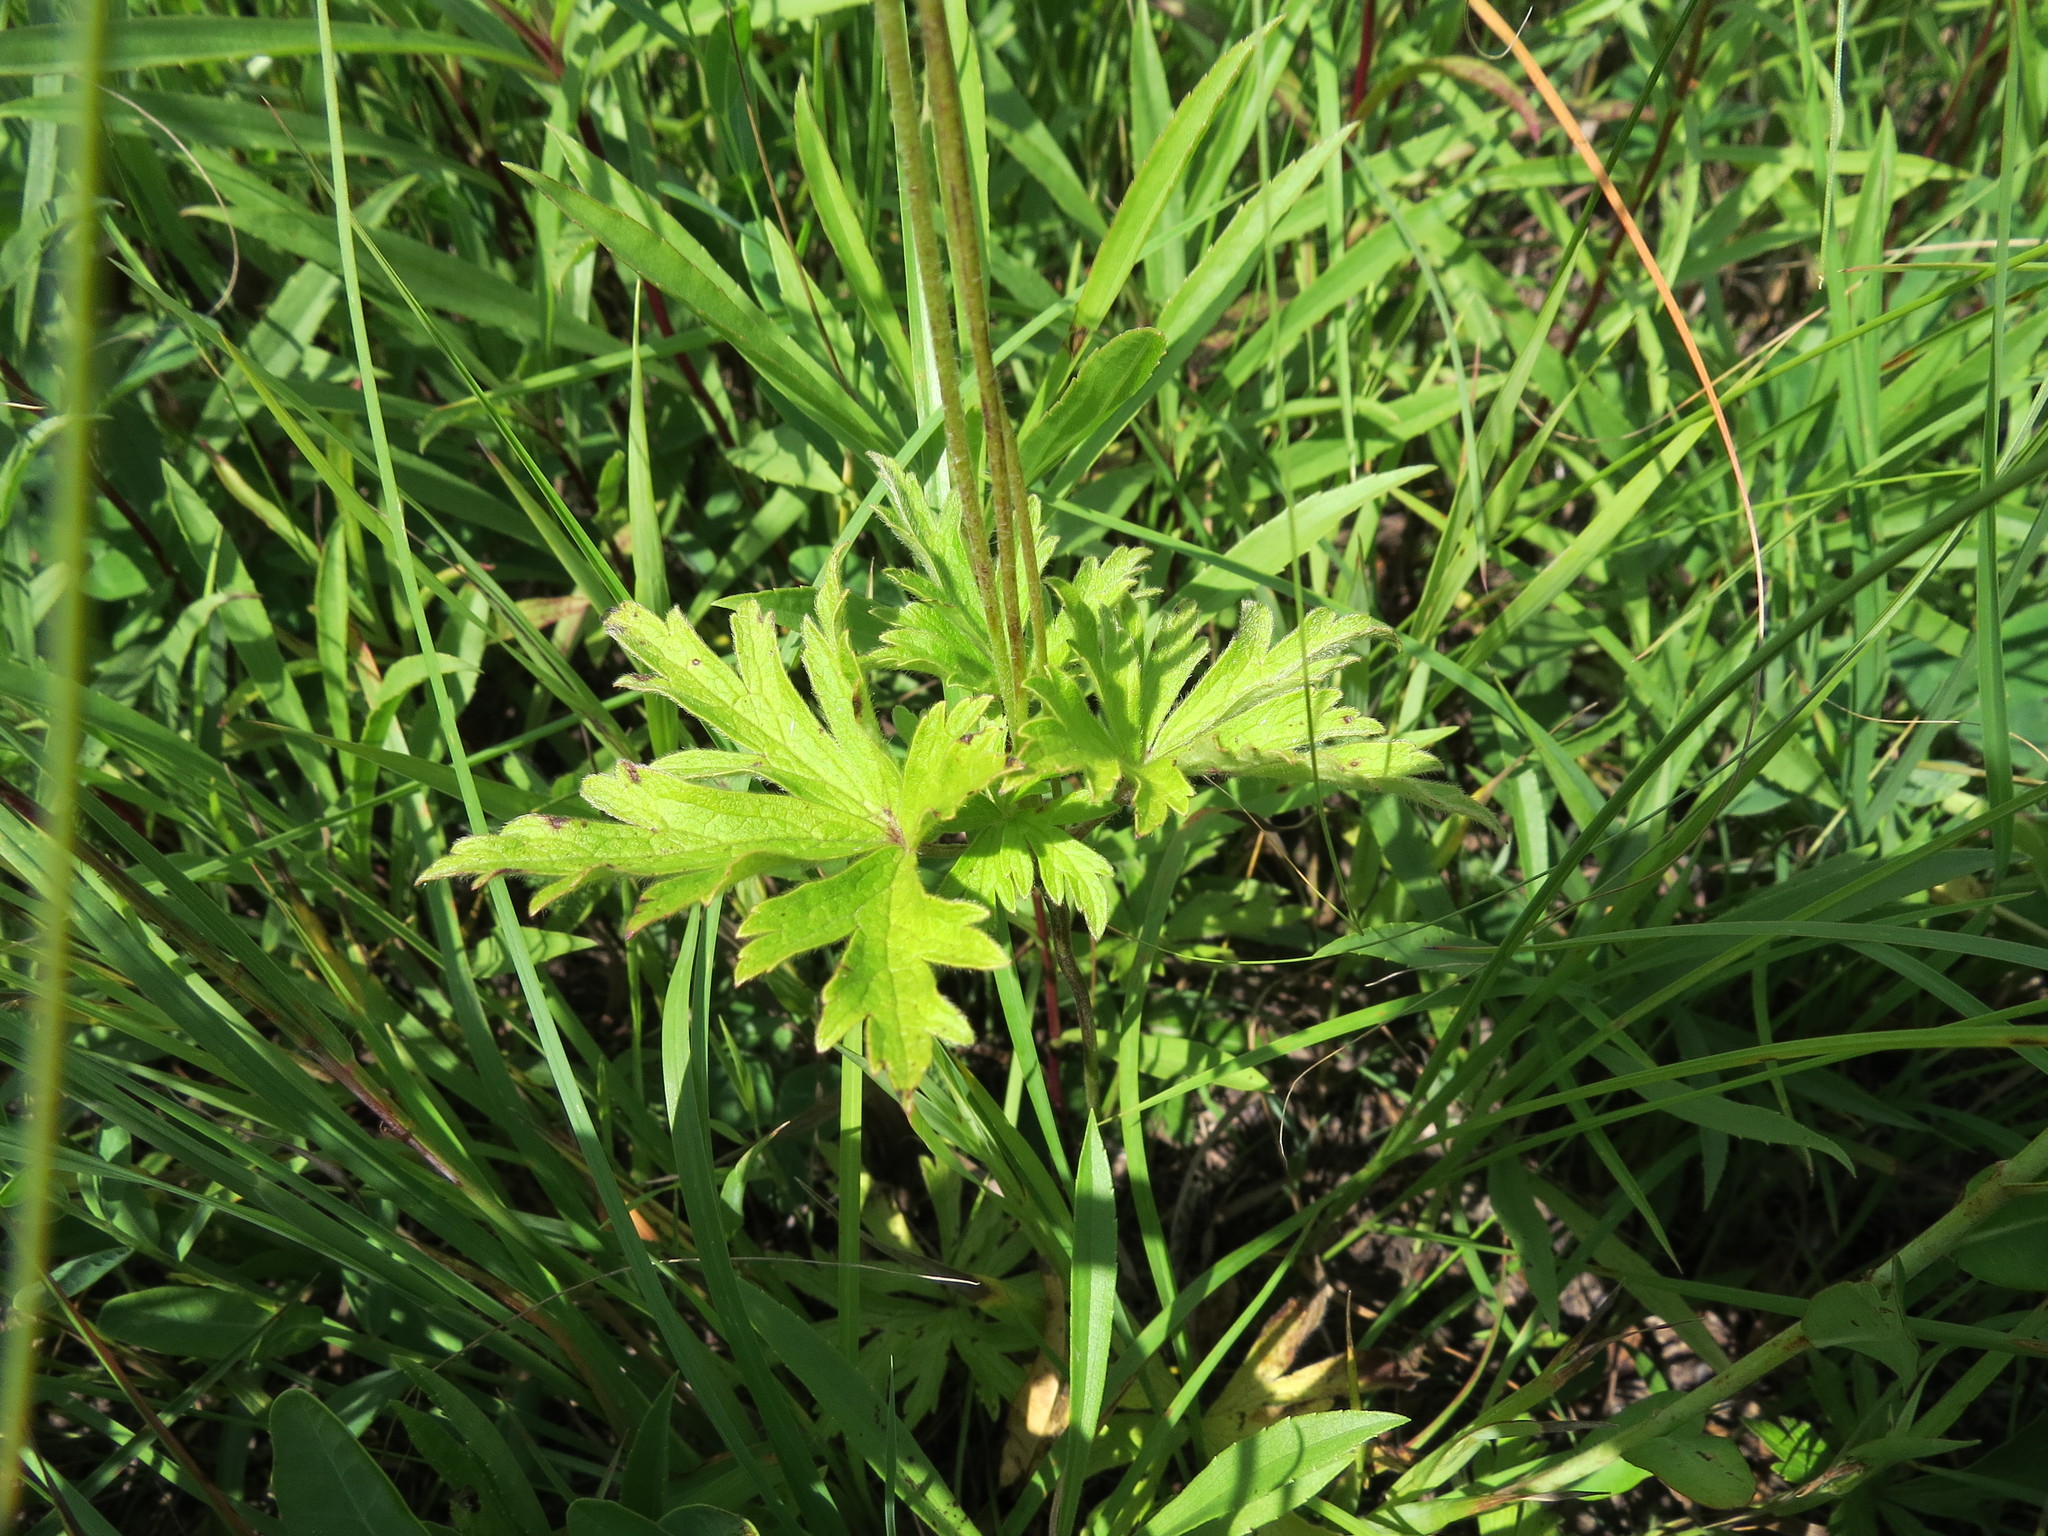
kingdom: Plantae
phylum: Tracheophyta
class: Magnoliopsida
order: Ranunculales
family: Ranunculaceae
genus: Anemone
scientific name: Anemone cylindrica
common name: Candle anemone
